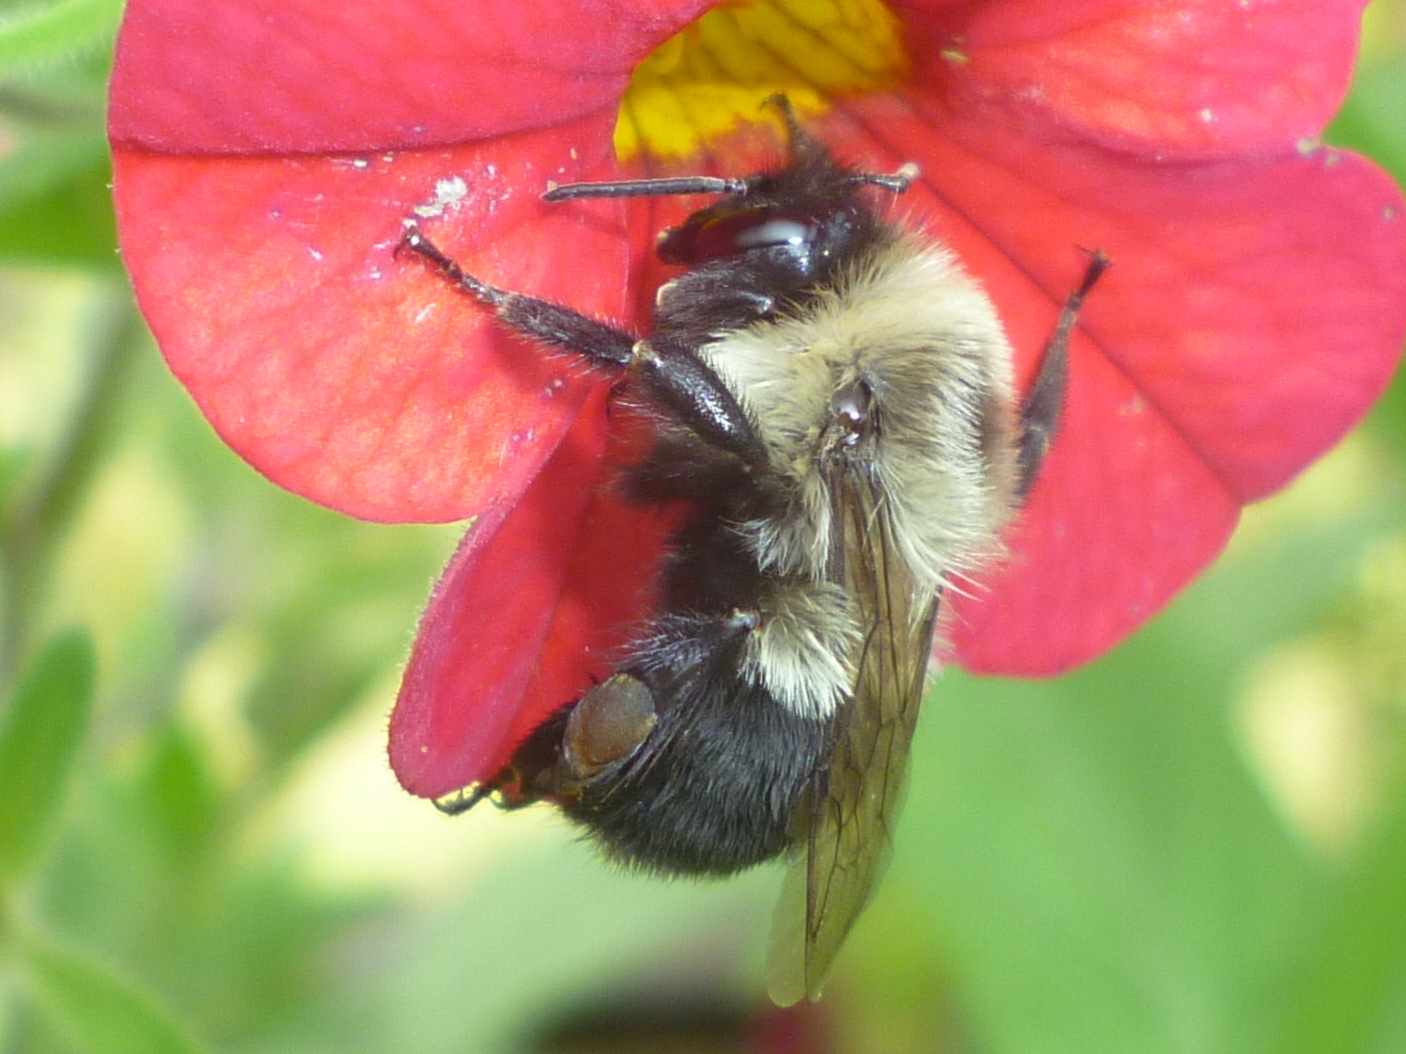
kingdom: Animalia
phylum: Arthropoda
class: Insecta
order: Hymenoptera
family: Apidae
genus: Bombus
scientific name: Bombus impatiens
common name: Common eastern bumble bee
